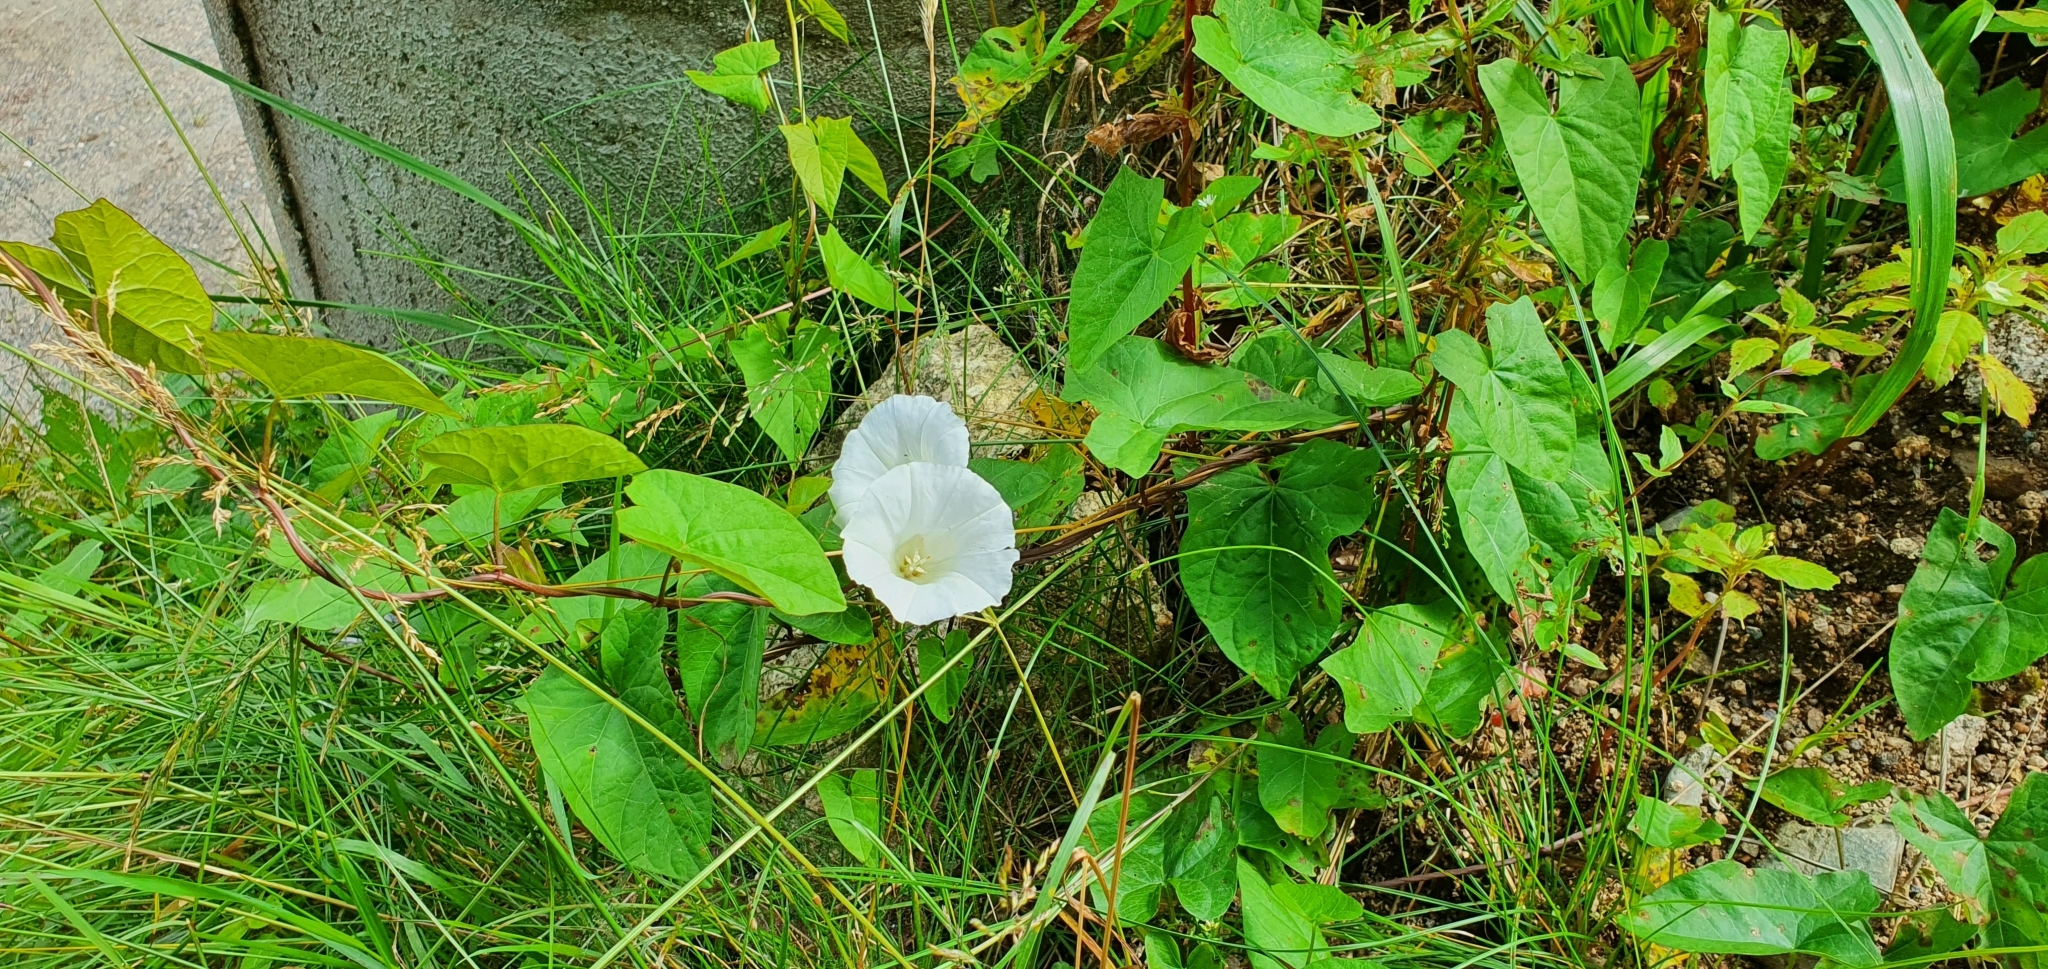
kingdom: Plantae
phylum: Tracheophyta
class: Magnoliopsida
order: Solanales
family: Convolvulaceae
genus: Calystegia
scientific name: Calystegia sepium
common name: Hedge bindweed
